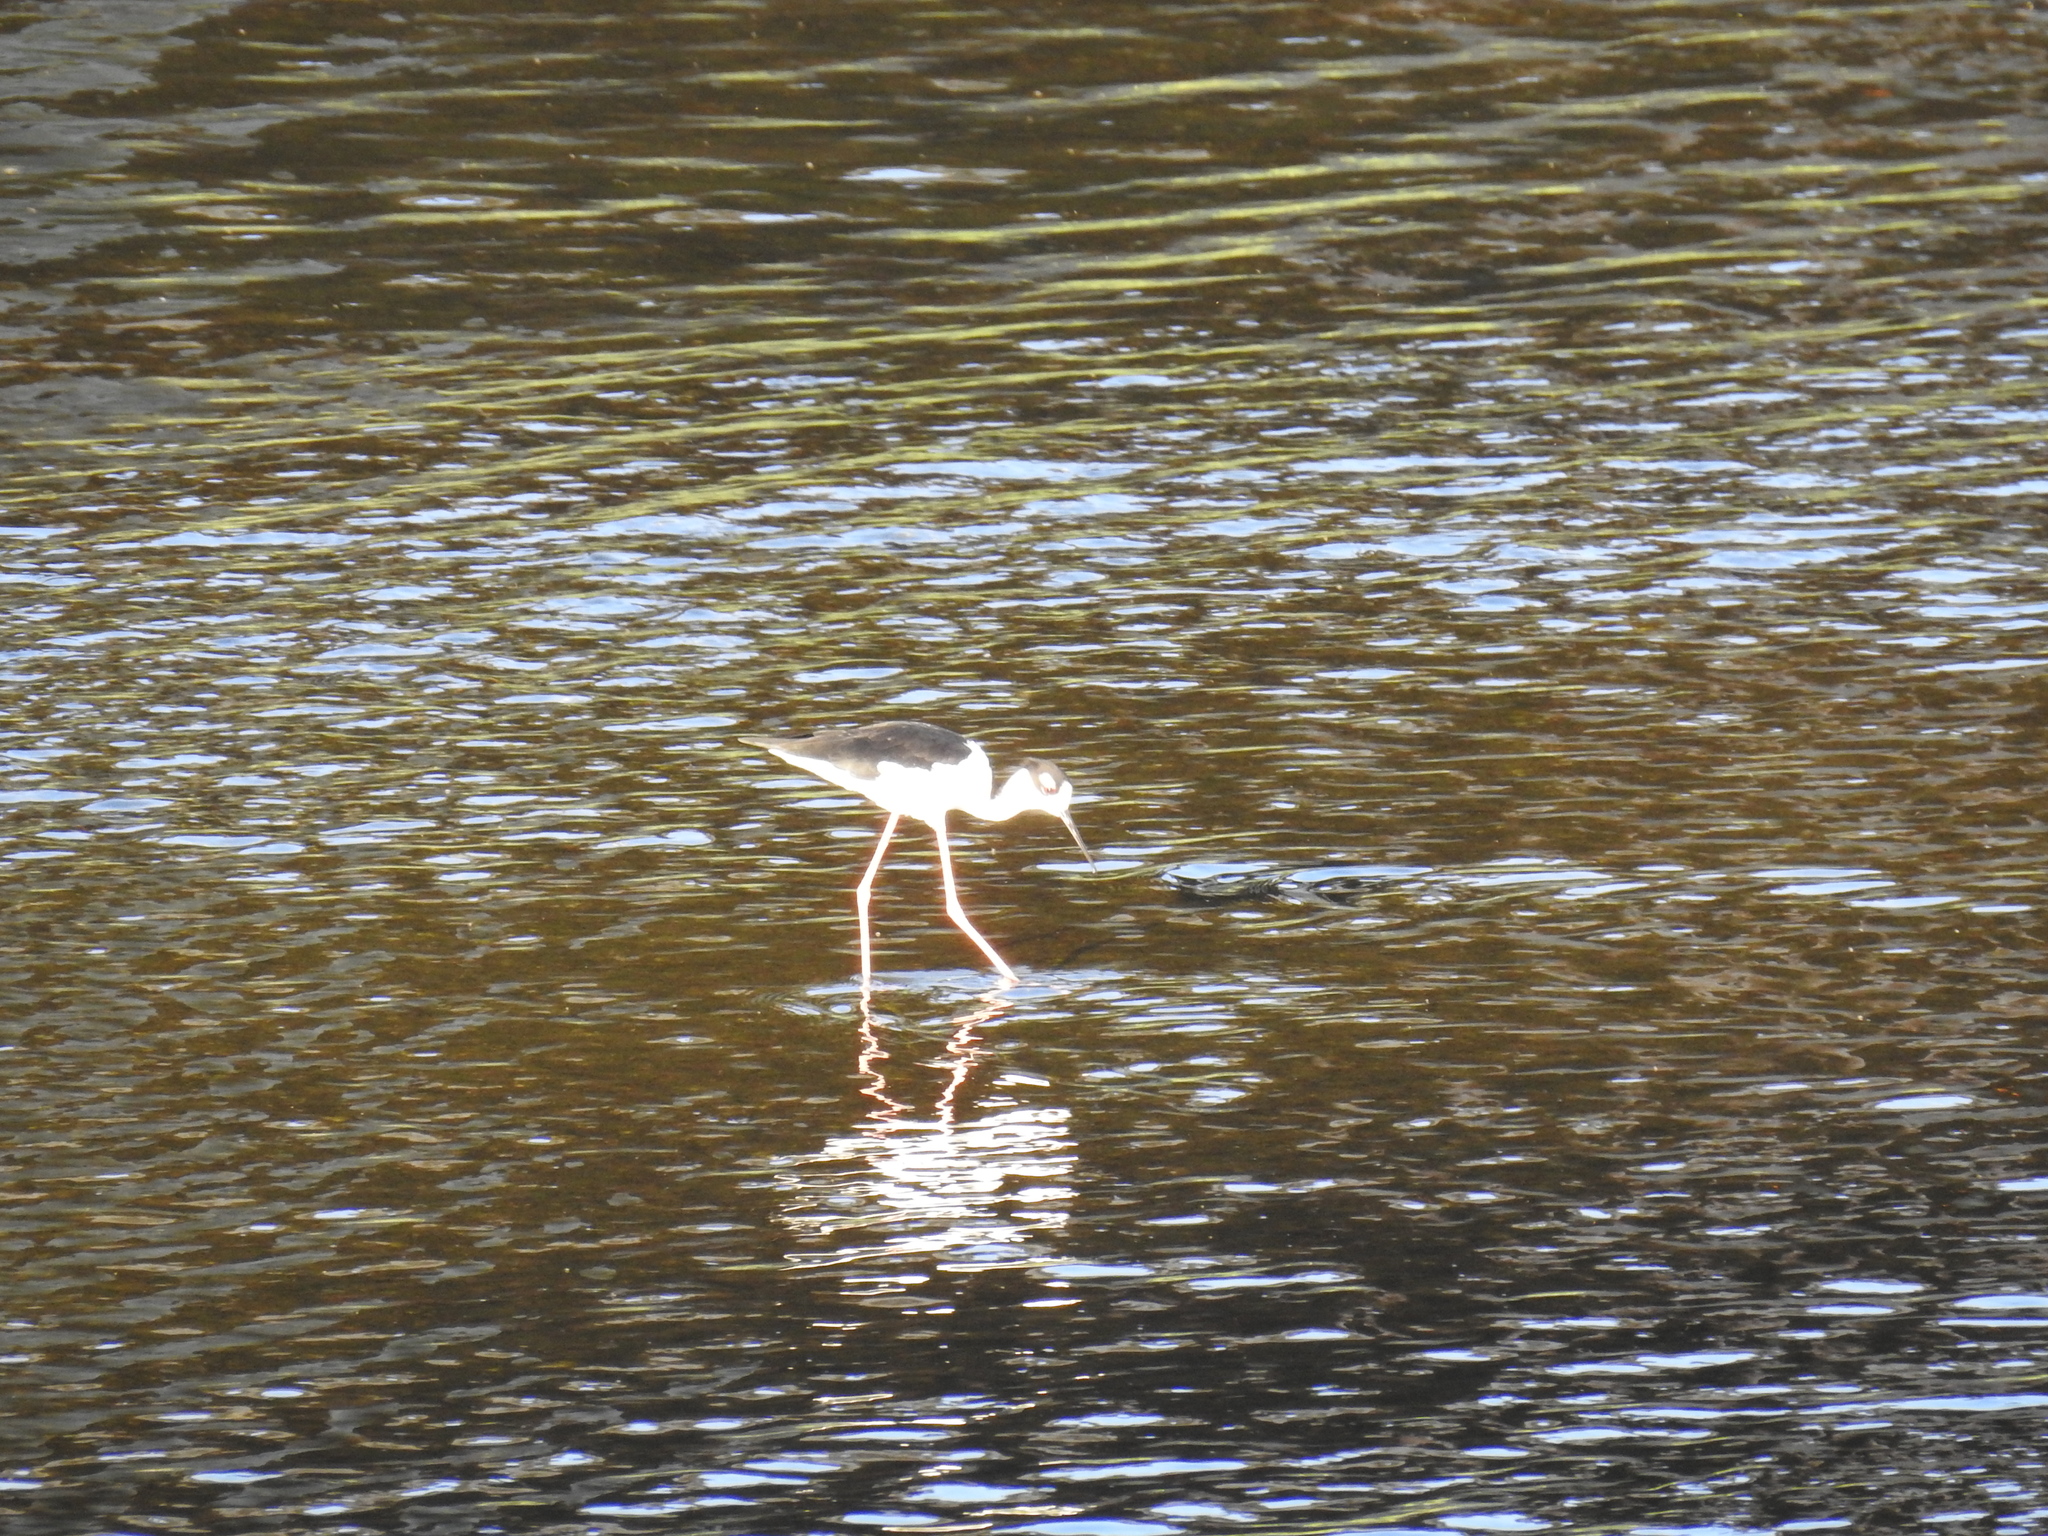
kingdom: Animalia
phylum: Chordata
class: Aves
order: Charadriiformes
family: Recurvirostridae
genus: Himantopus
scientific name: Himantopus mexicanus
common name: Black-necked stilt
